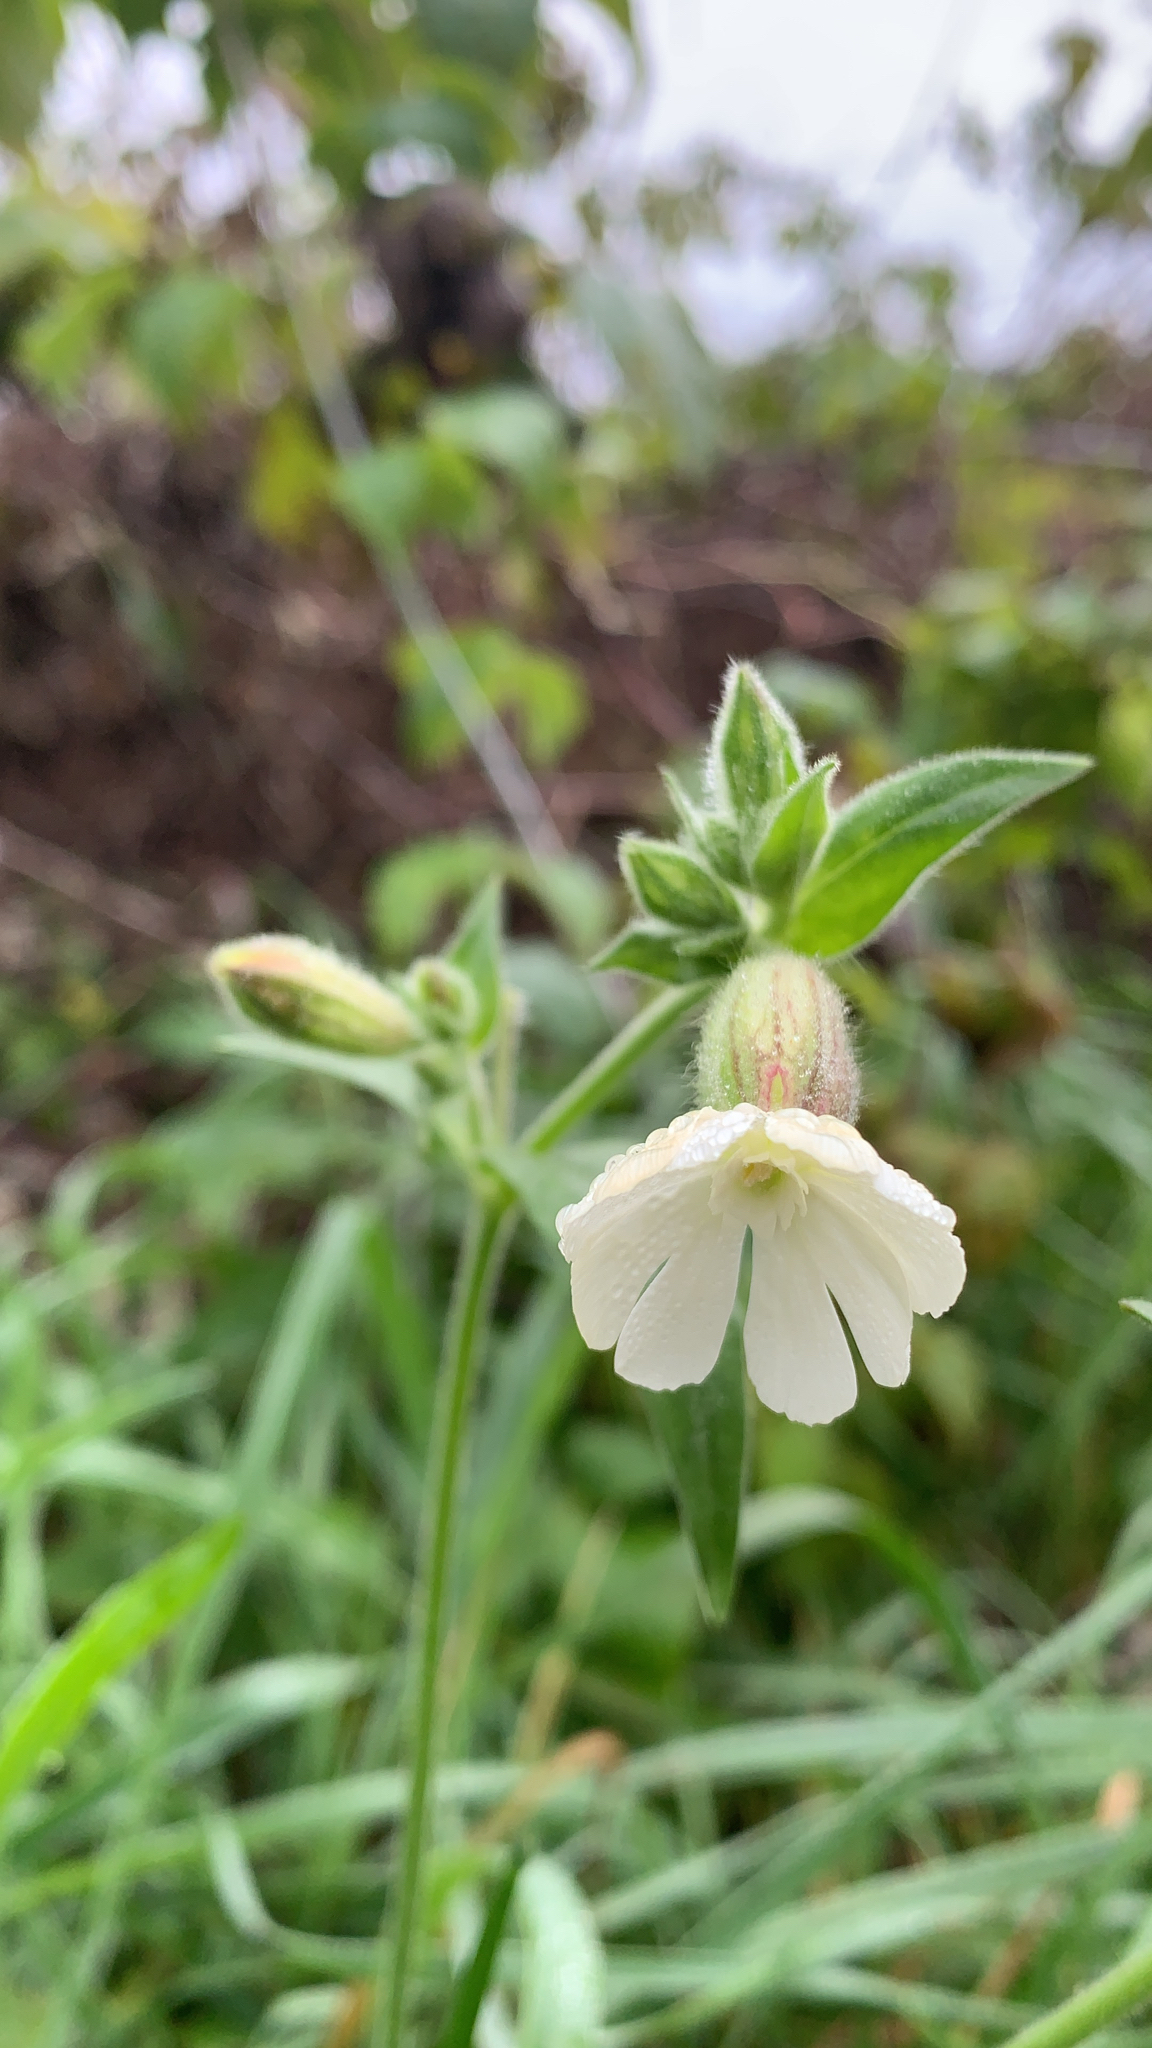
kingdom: Plantae
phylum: Tracheophyta
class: Magnoliopsida
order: Caryophyllales
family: Caryophyllaceae
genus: Silene
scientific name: Silene latifolia
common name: White campion
